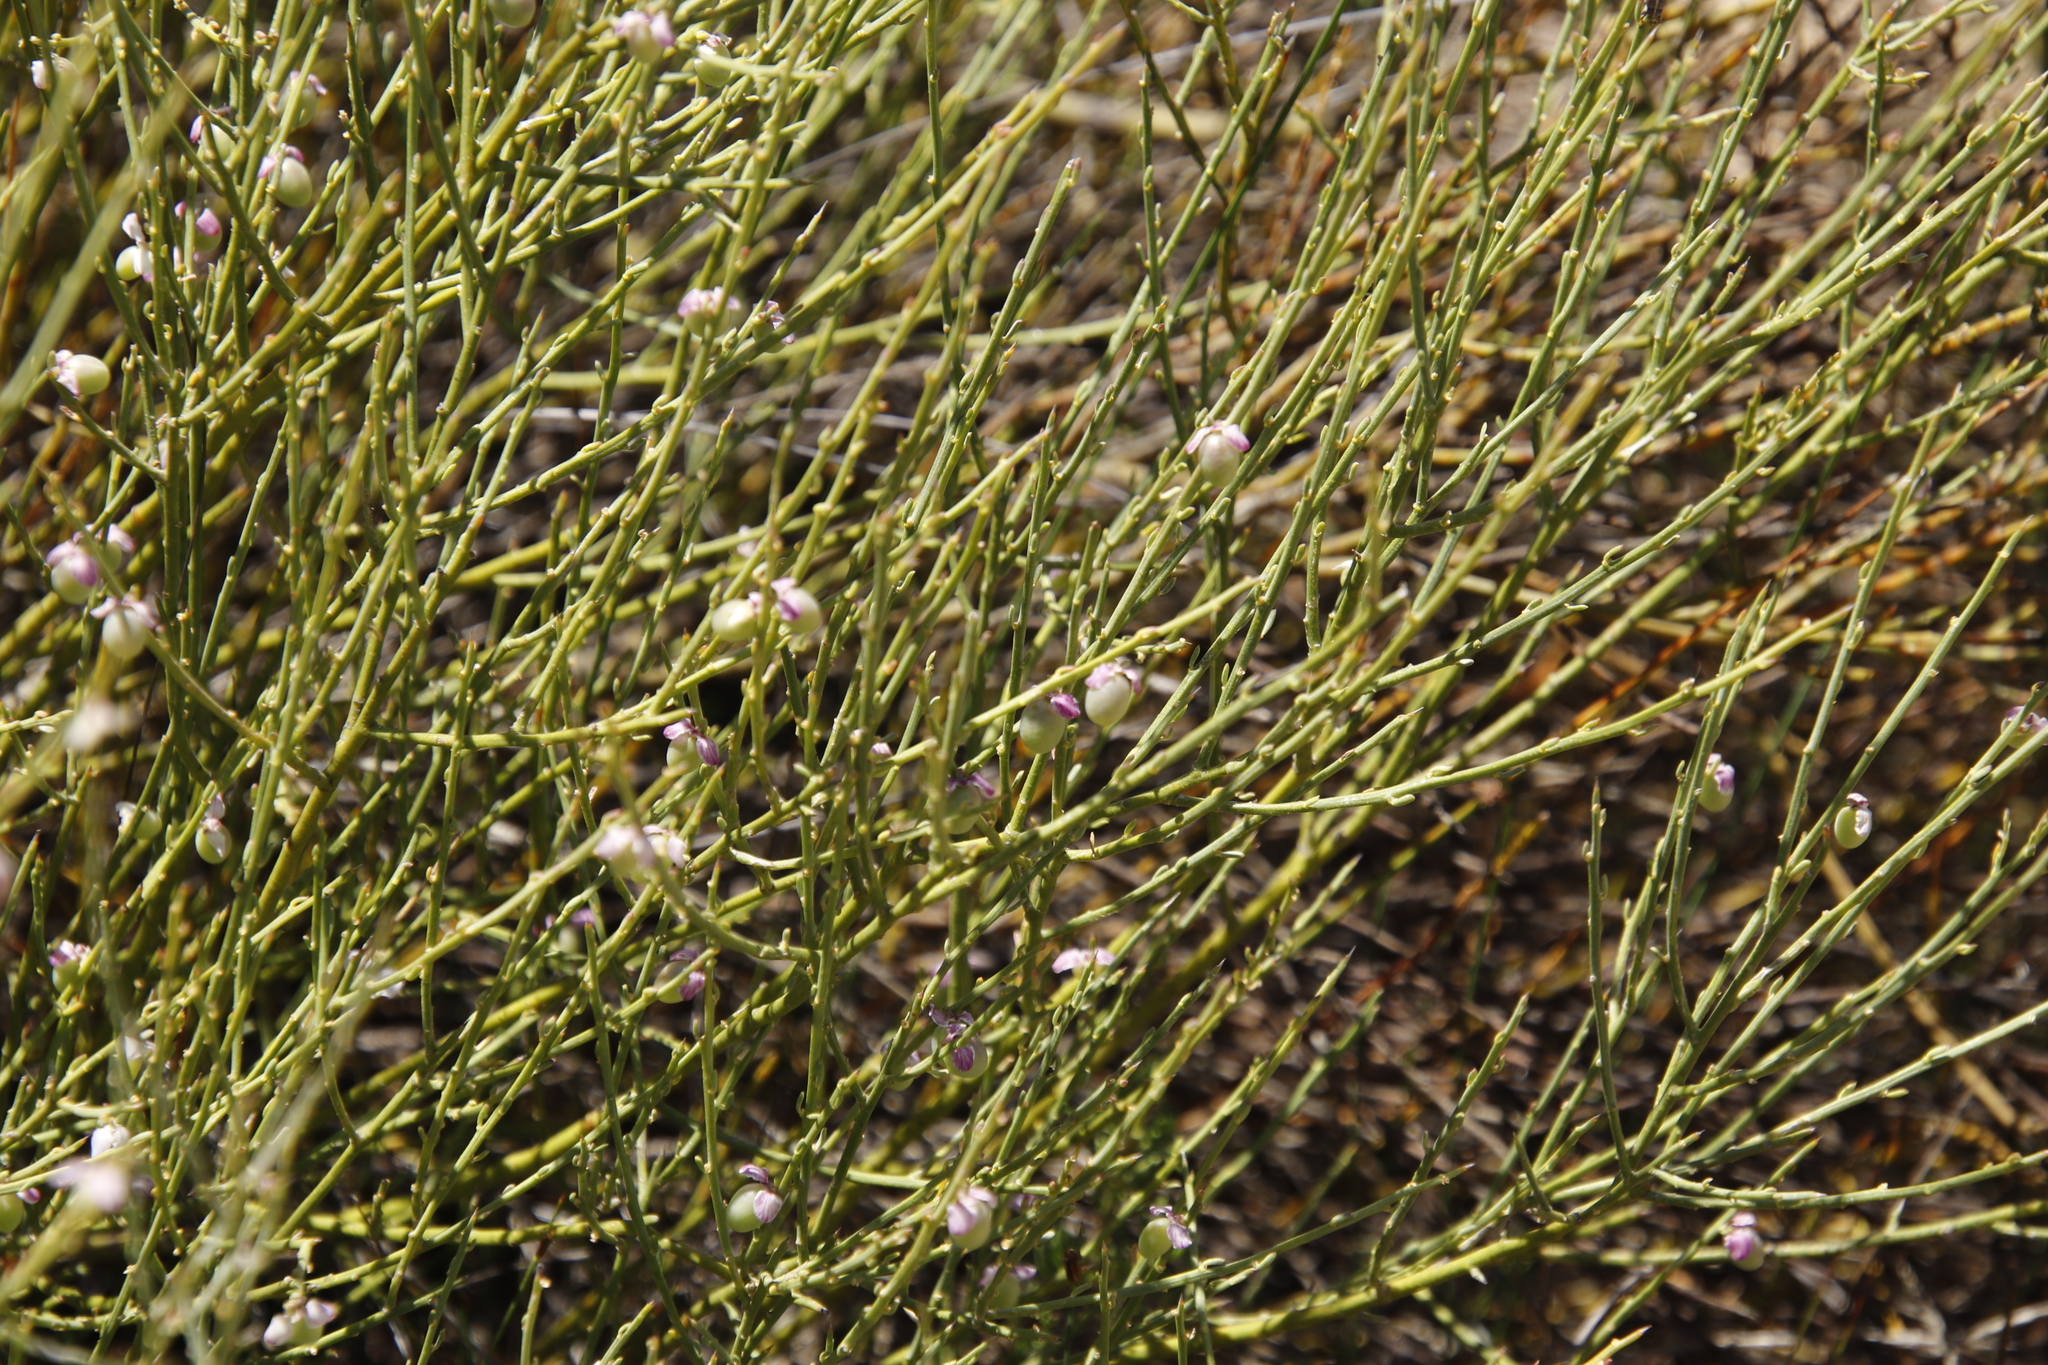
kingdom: Plantae
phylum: Tracheophyta
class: Magnoliopsida
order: Fabales
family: Polygalaceae
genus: Muraltia
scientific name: Muraltia spinosa
